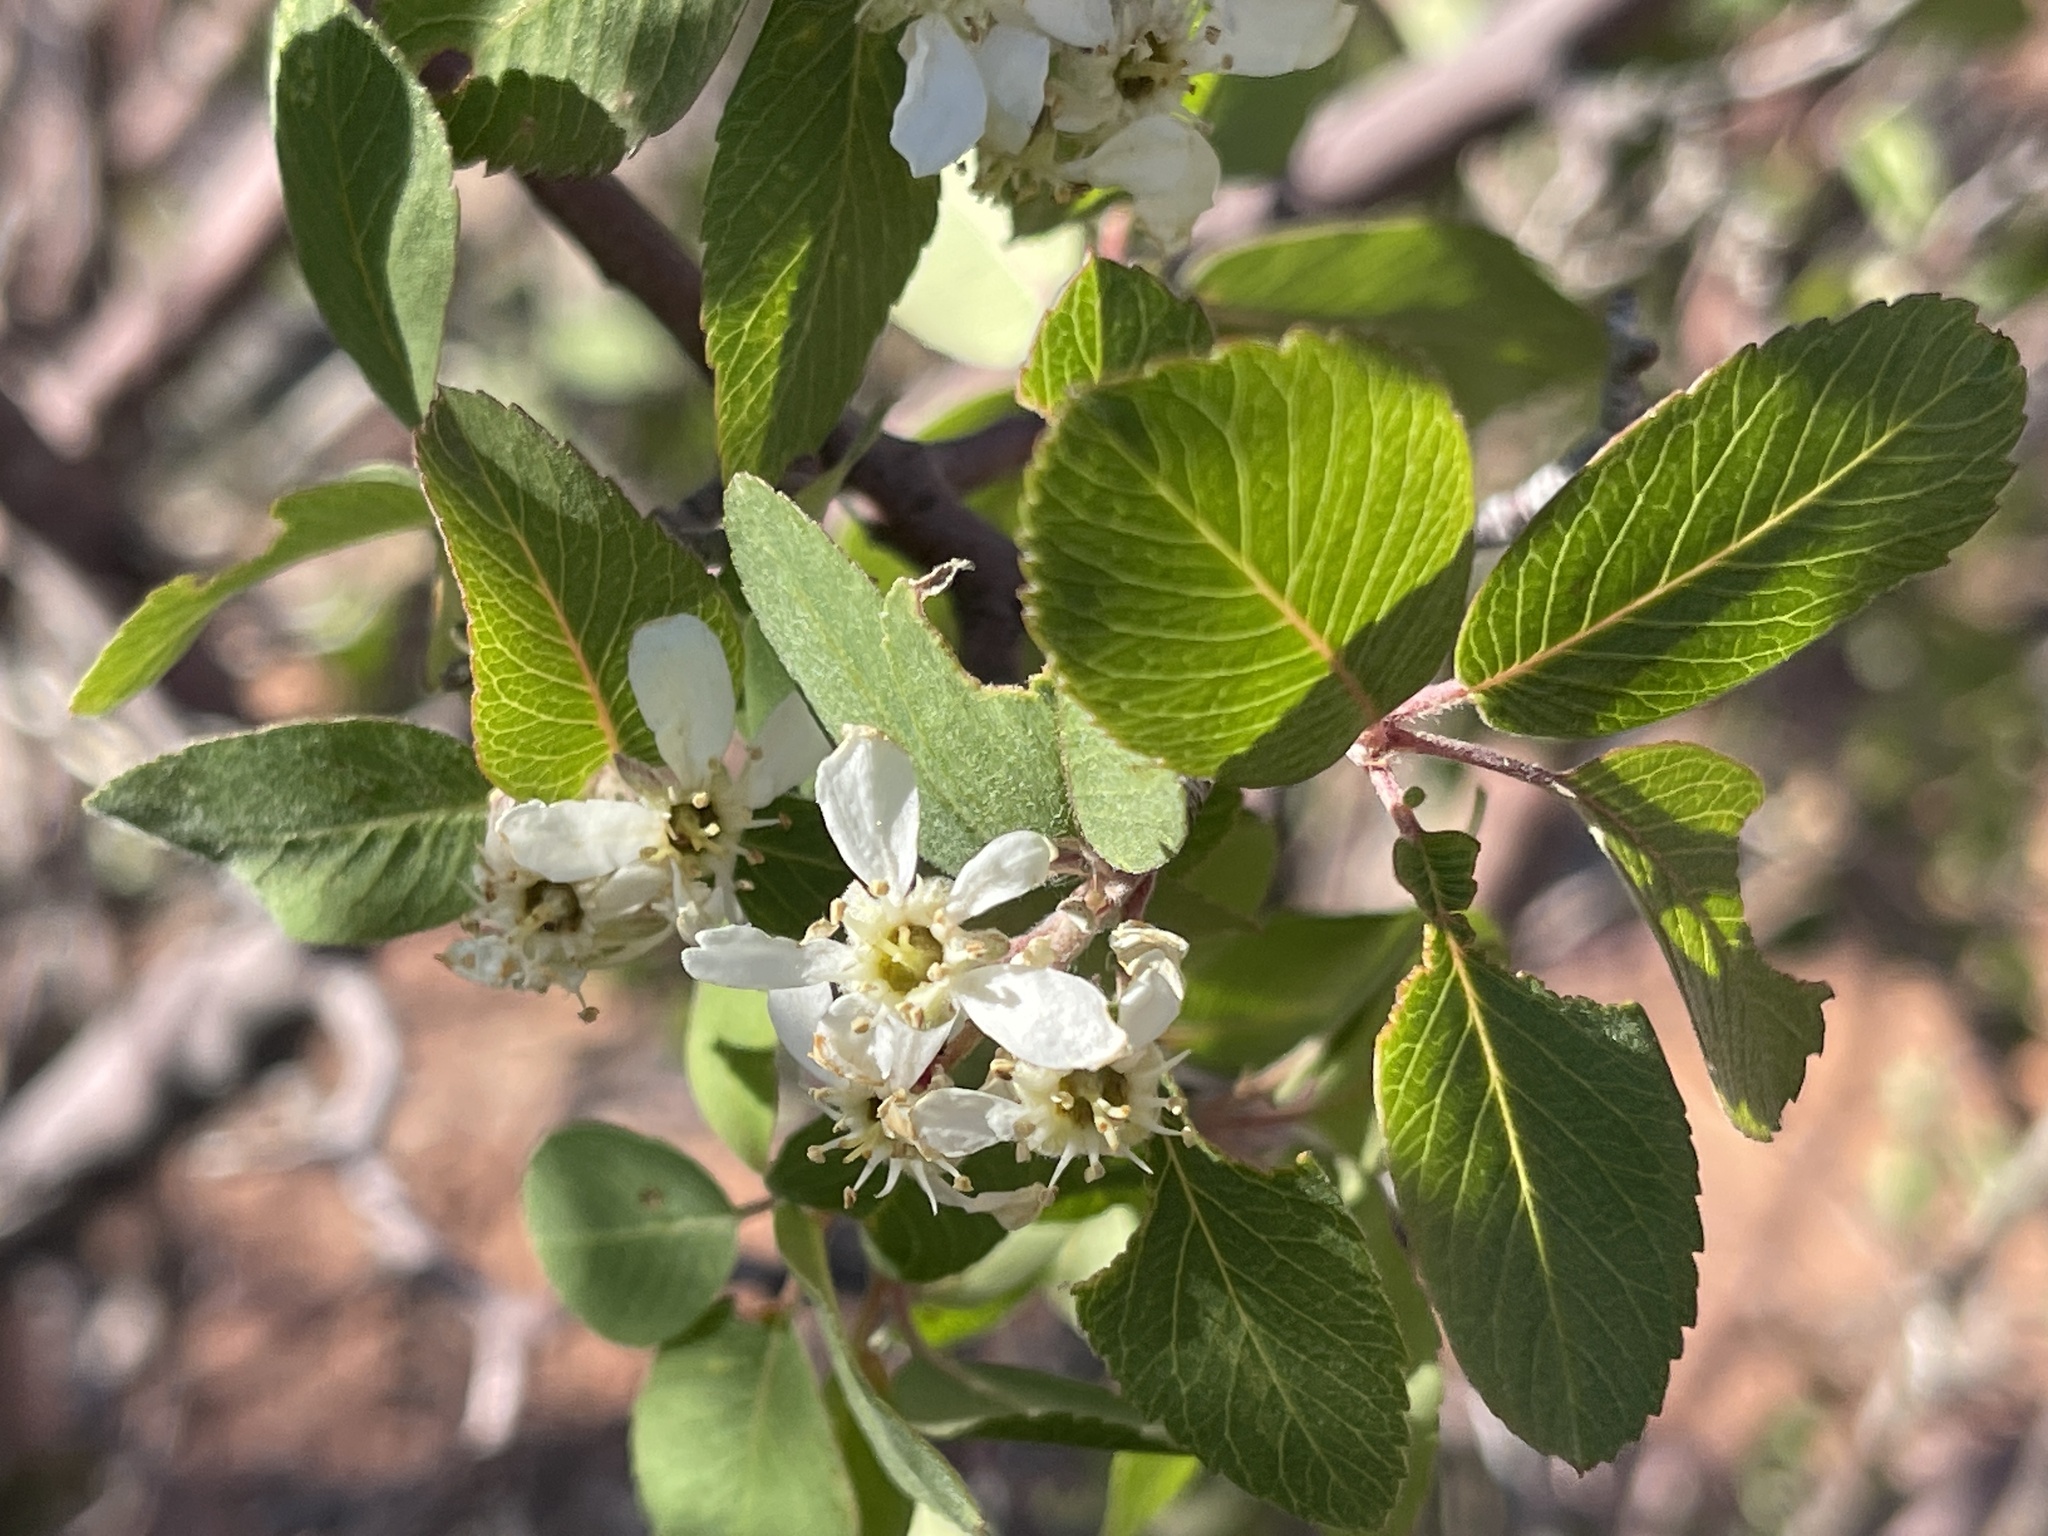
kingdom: Plantae
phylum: Tracheophyta
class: Magnoliopsida
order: Rosales
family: Rosaceae
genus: Amelanchier
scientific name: Amelanchier utahensis
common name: Utah serviceberry
